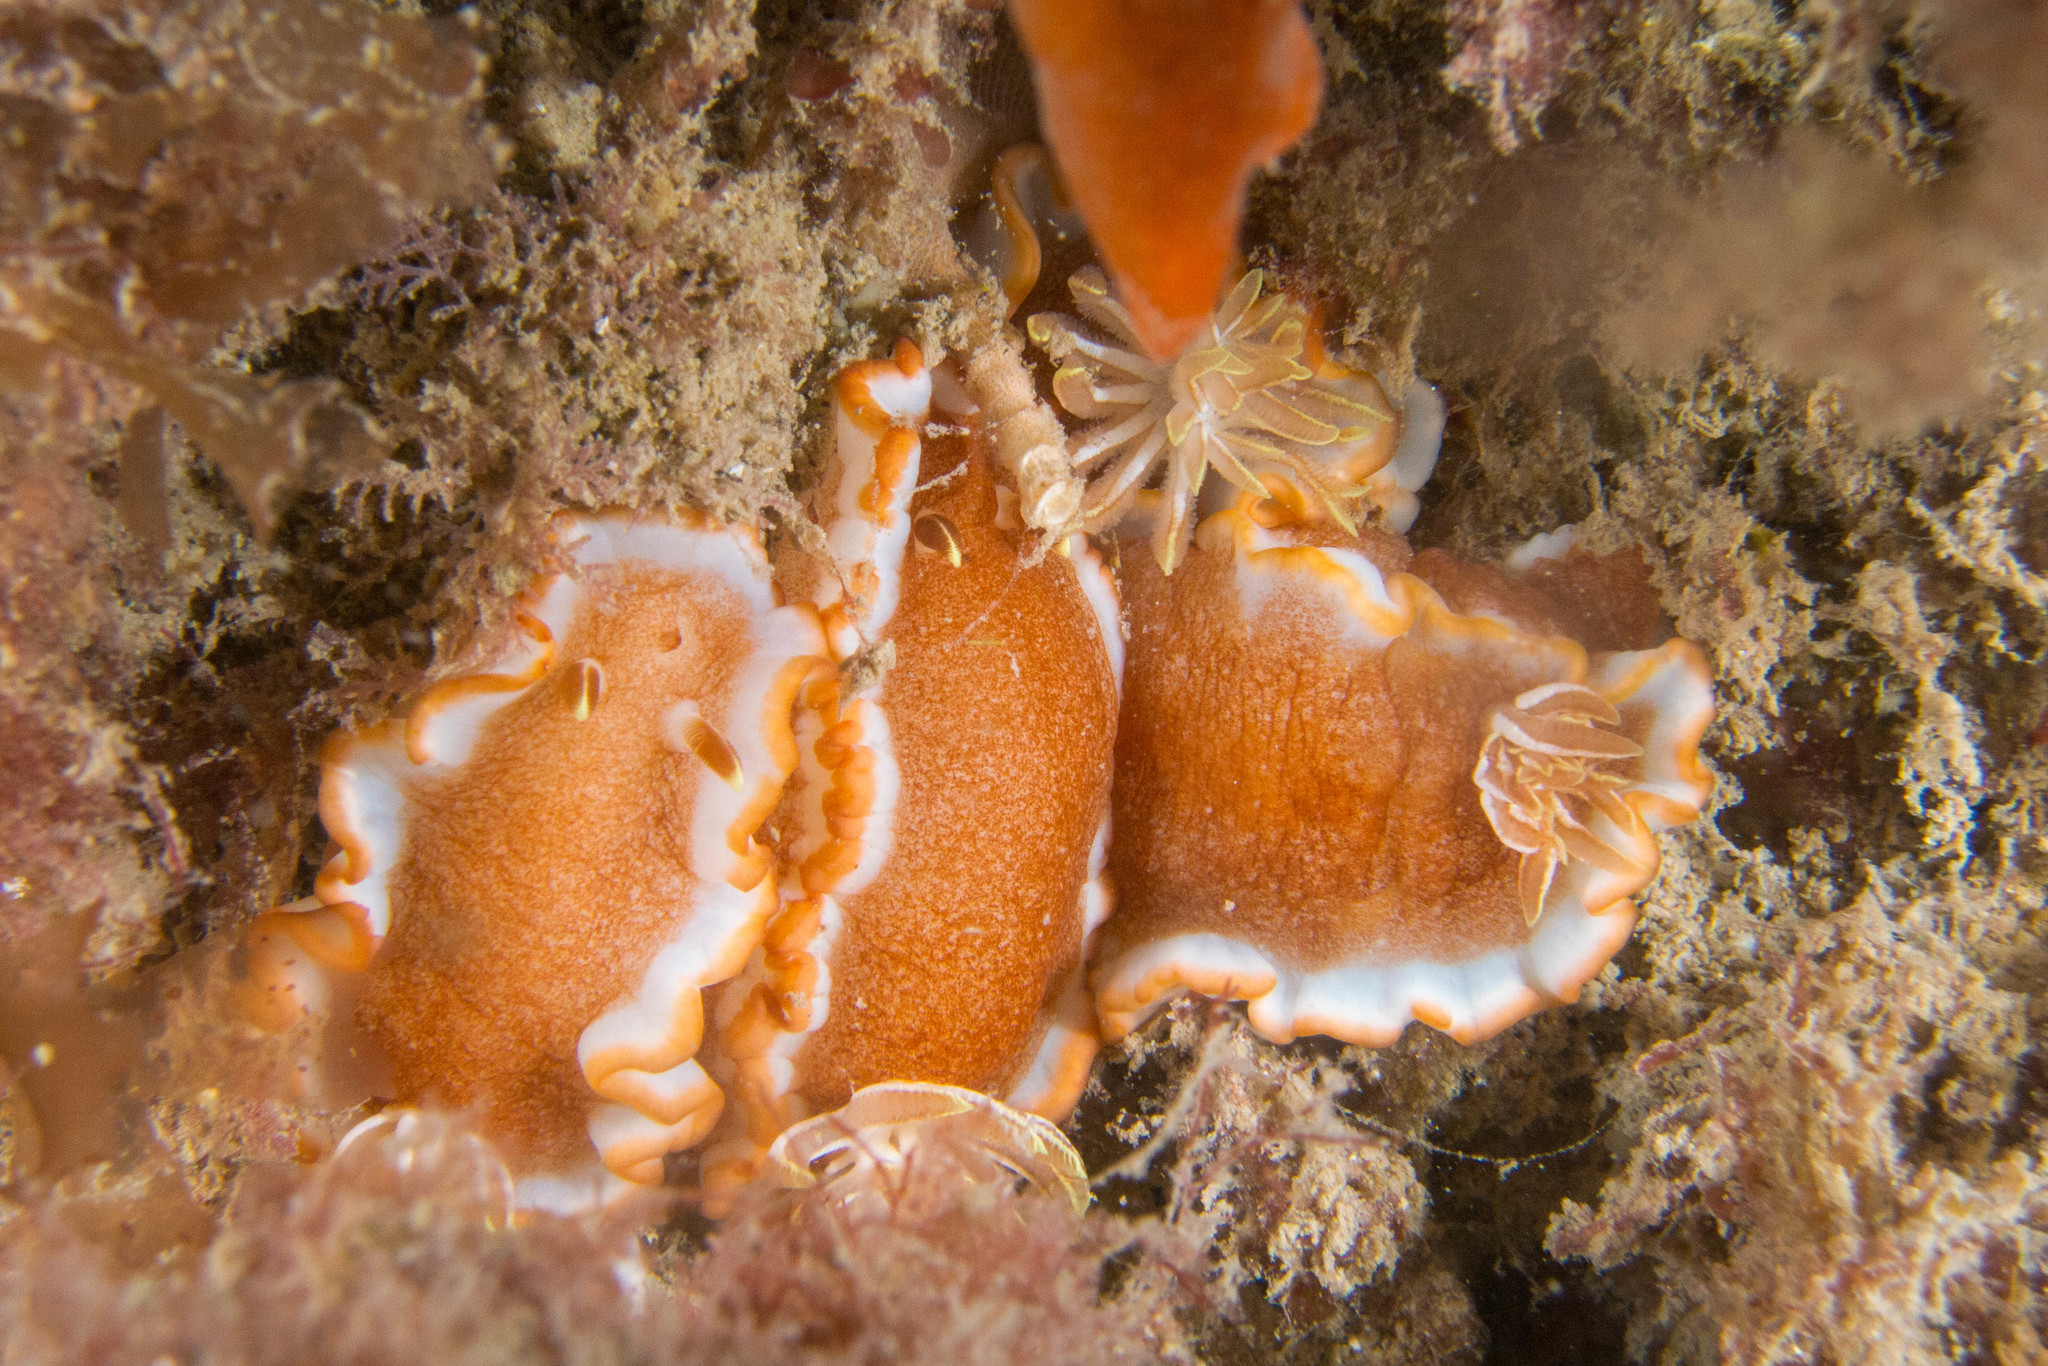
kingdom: Animalia
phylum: Mollusca
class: Gastropoda
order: Nudibranchia
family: Chromodorididae
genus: Glossodoris
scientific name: Glossodoris rufomarginata
